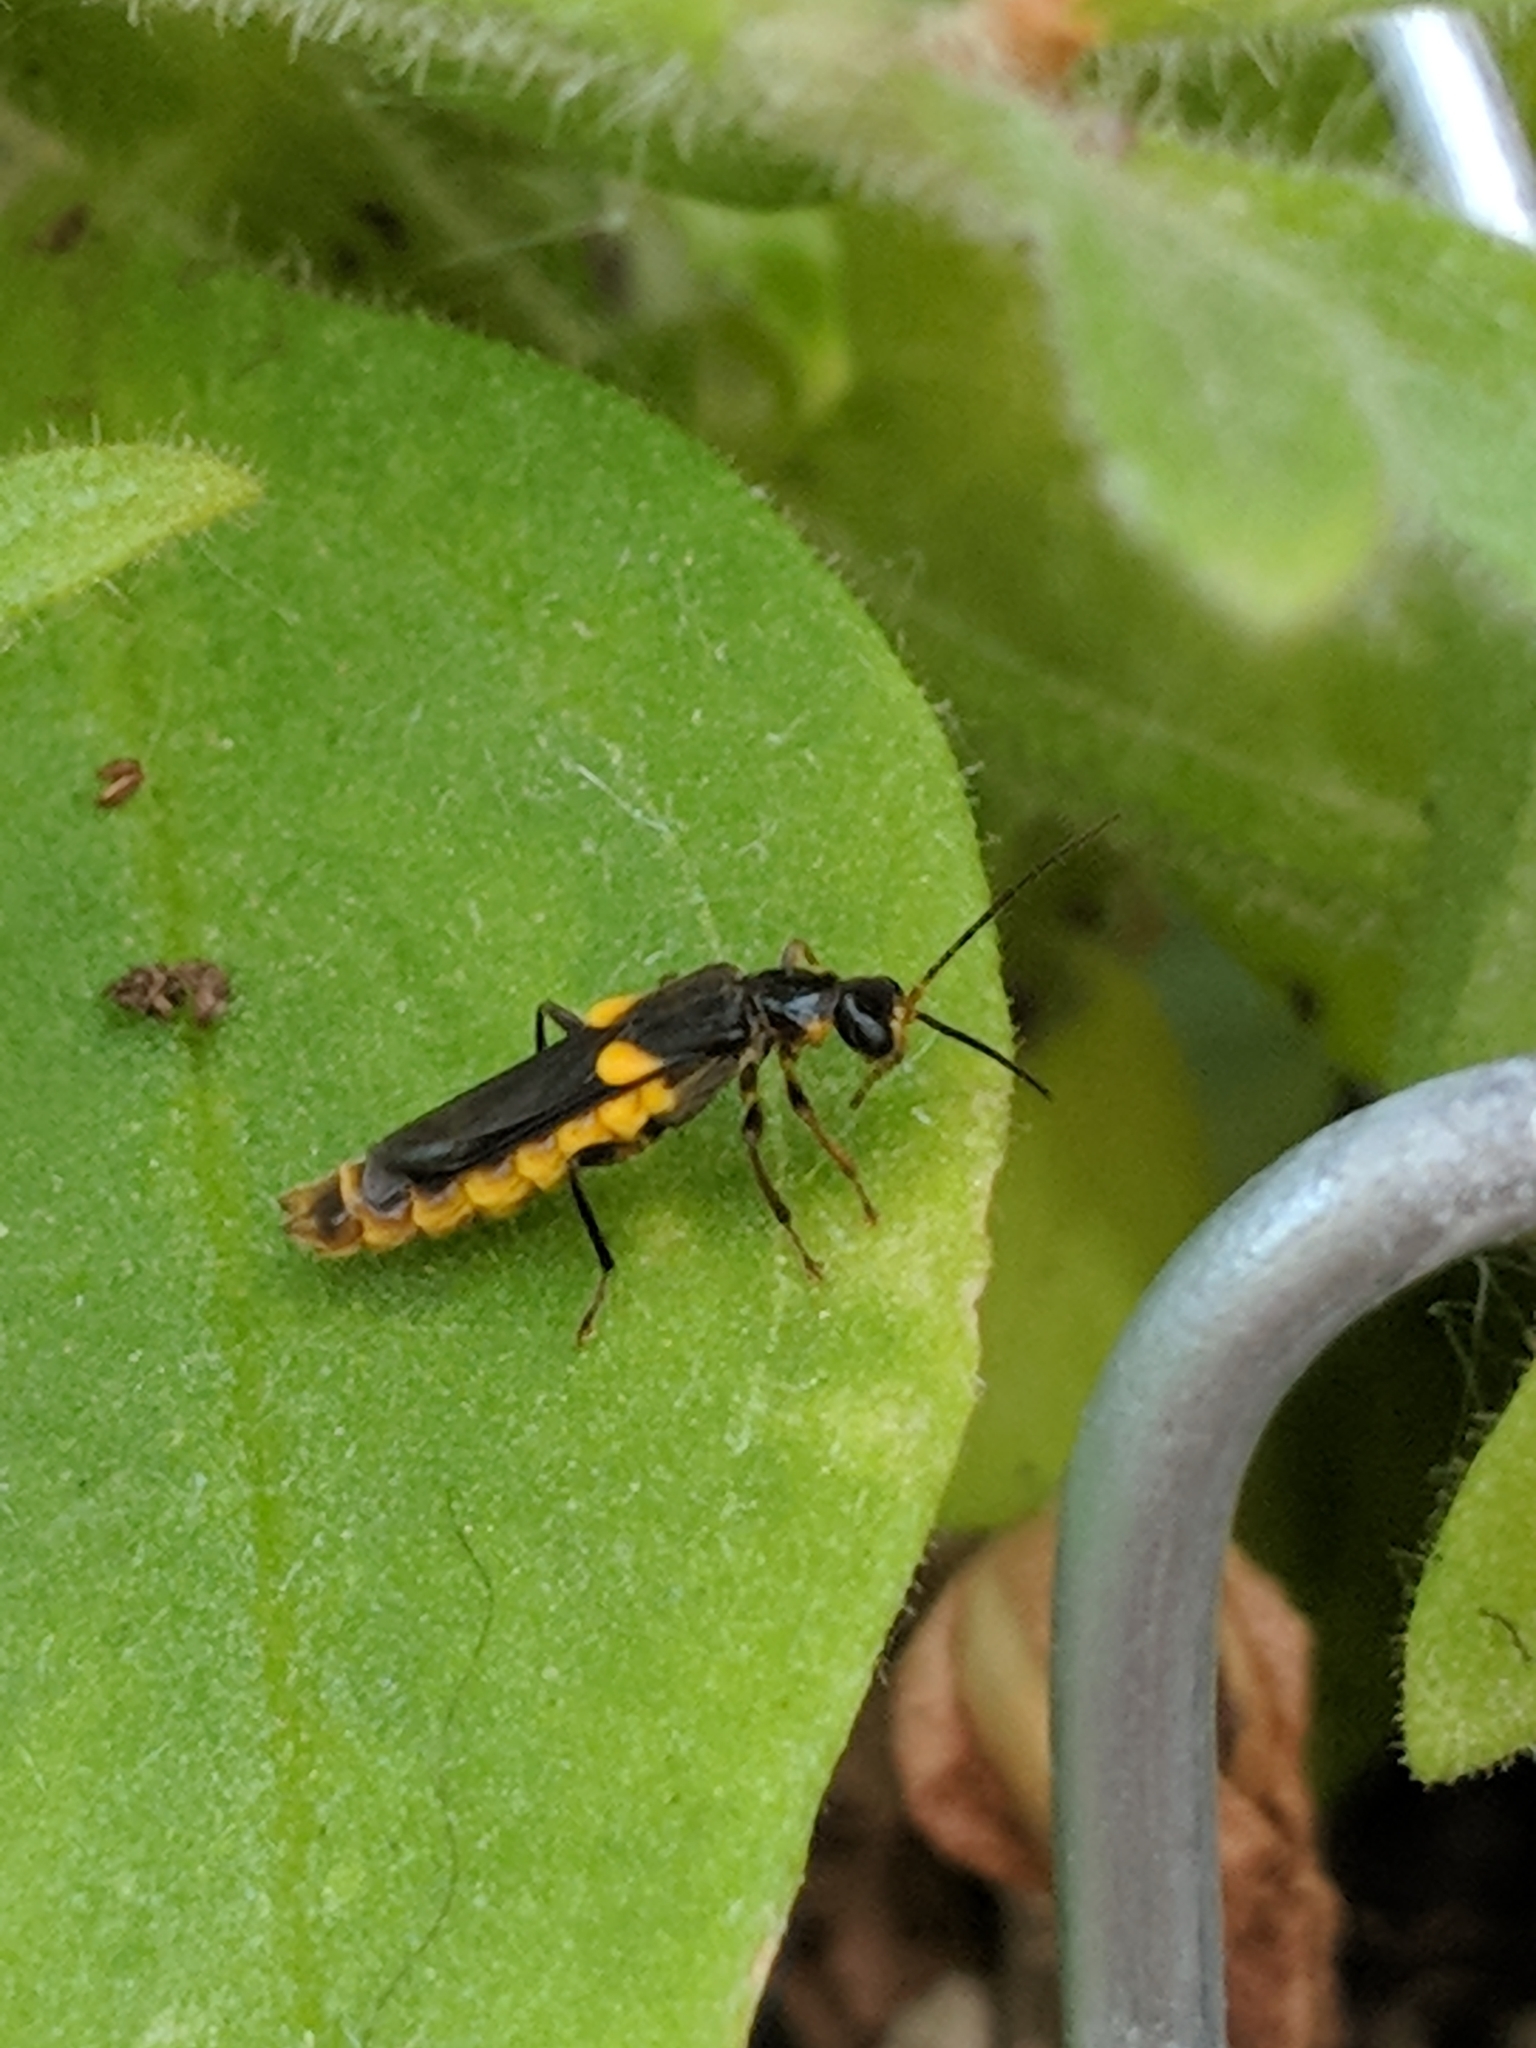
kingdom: Animalia
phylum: Arthropoda
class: Insecta
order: Coleoptera
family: Cantharidae
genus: Trypherus
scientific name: Trypherus
